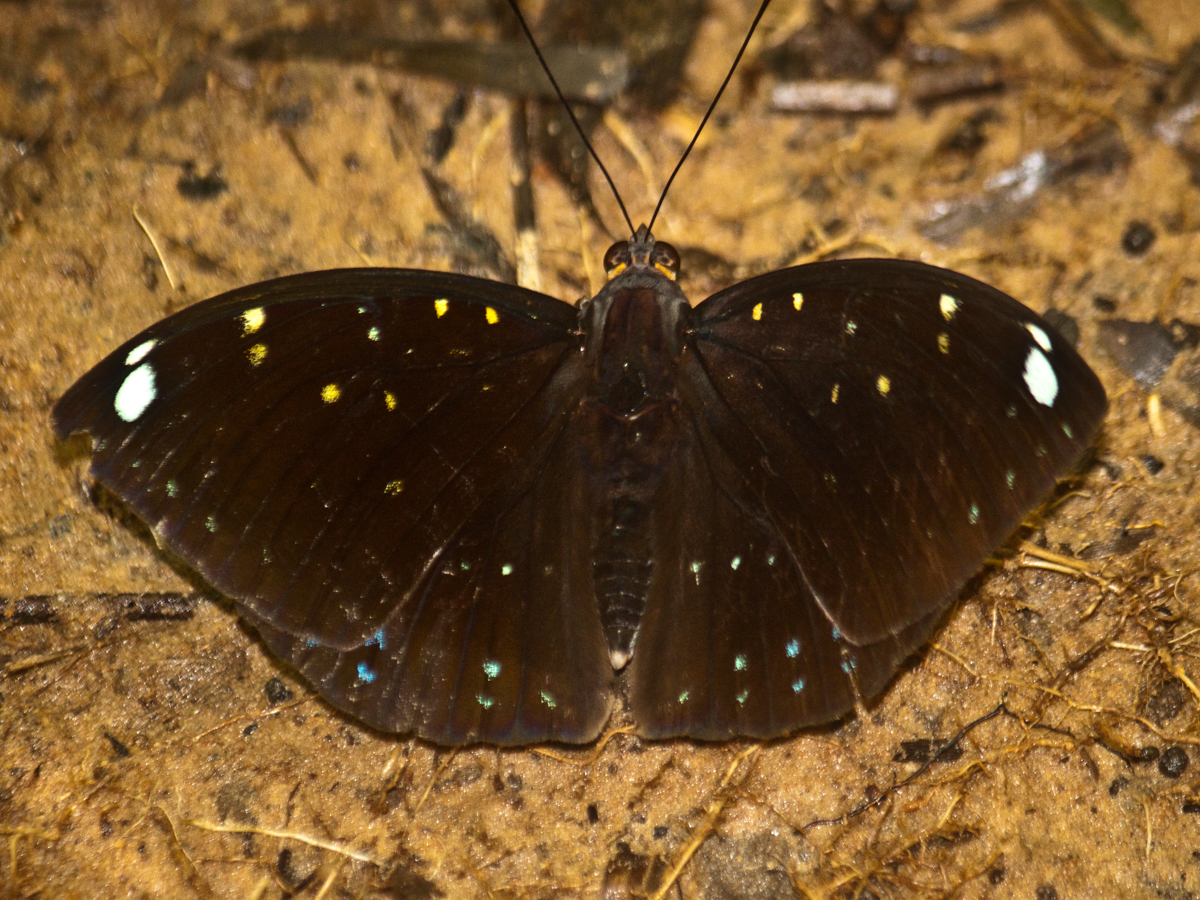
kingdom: Animalia
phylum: Arthropoda
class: Insecta
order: Lepidoptera
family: Nymphalidae
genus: Lexias
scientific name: Lexias
